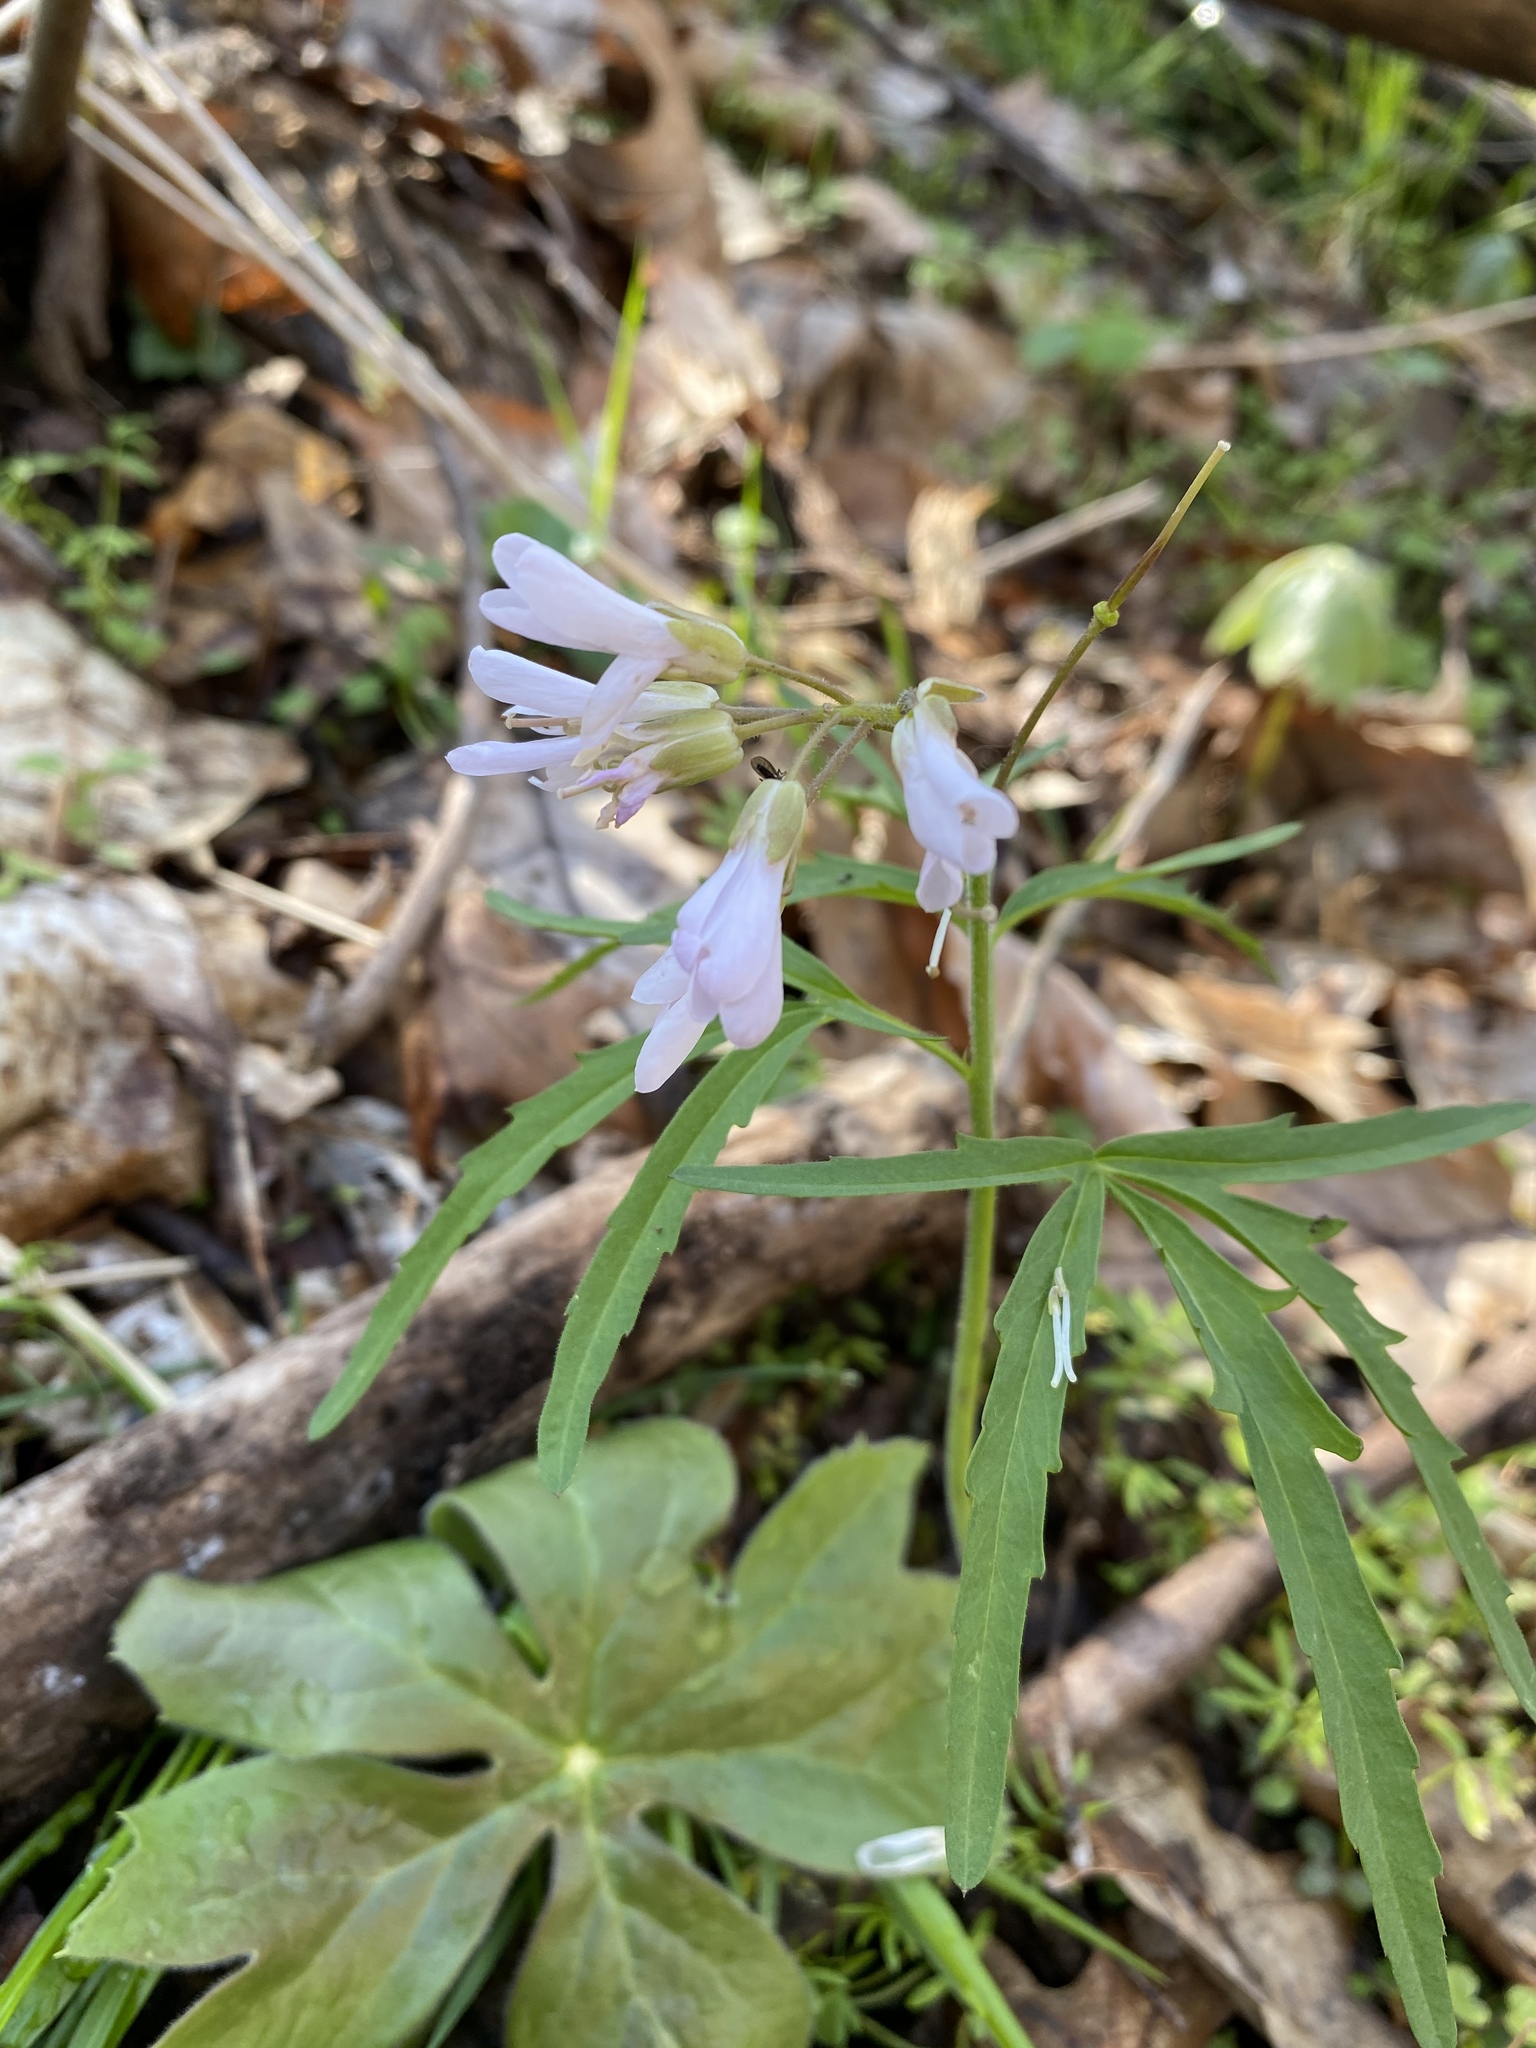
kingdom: Plantae
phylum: Tracheophyta
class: Magnoliopsida
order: Brassicales
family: Brassicaceae
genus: Cardamine
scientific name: Cardamine concatenata
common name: Cut-leaf toothcup
